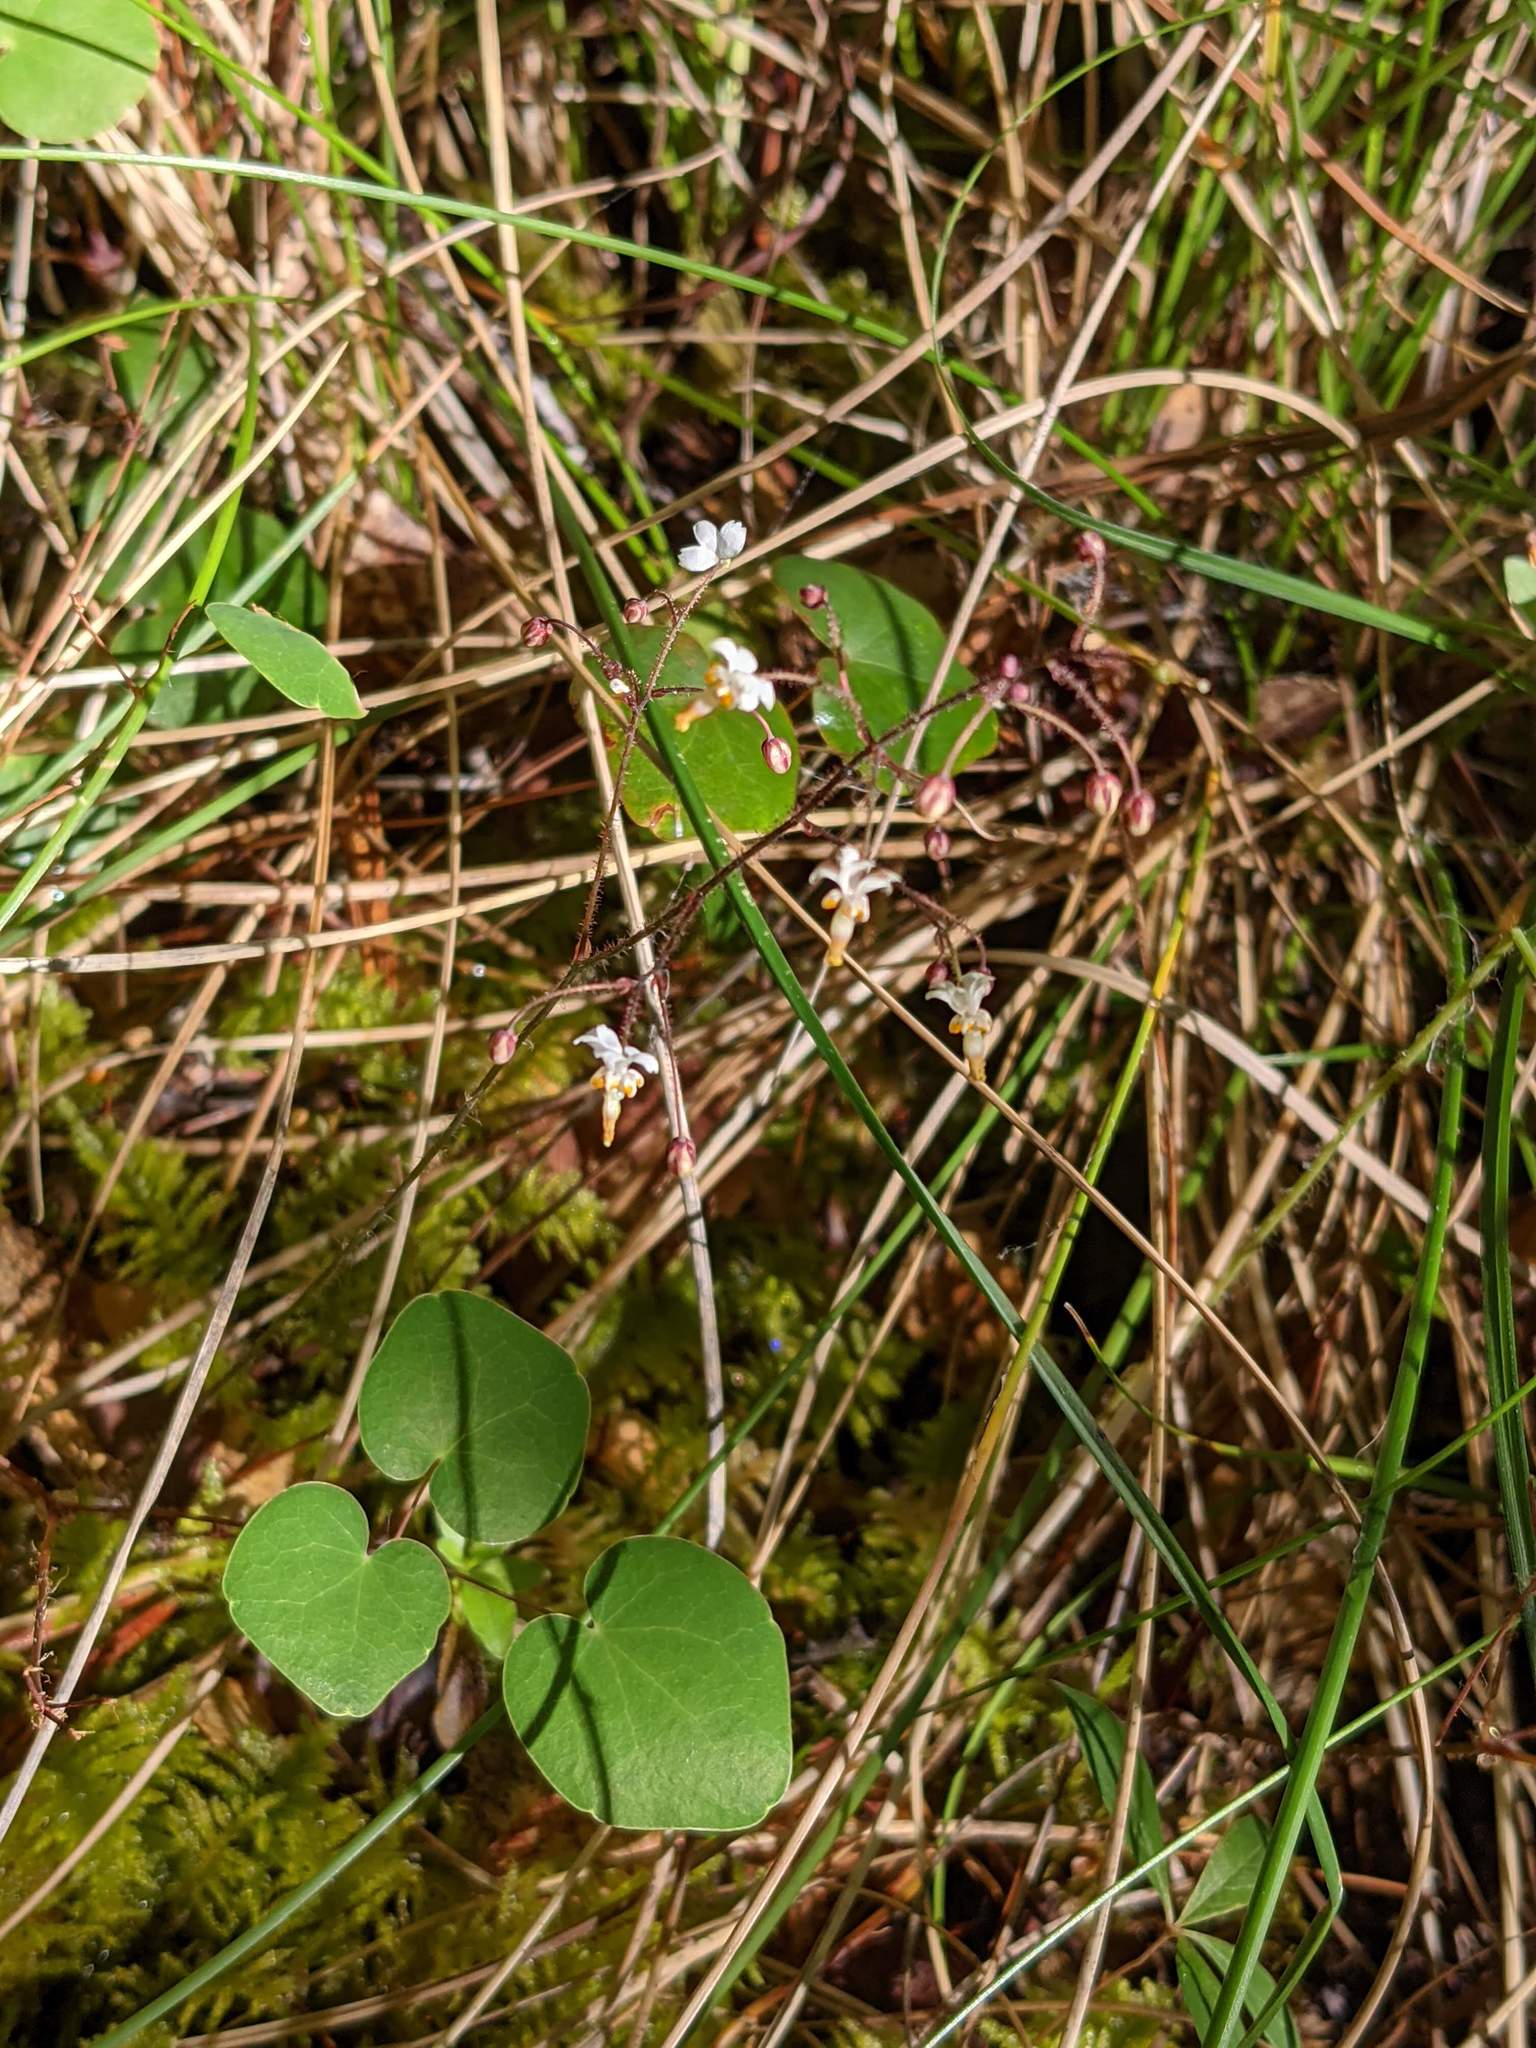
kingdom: Plantae
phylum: Tracheophyta
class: Magnoliopsida
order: Ranunculales
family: Berberidaceae
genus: Vancouveria
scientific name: Vancouveria planipetala
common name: Redwood-ivy
